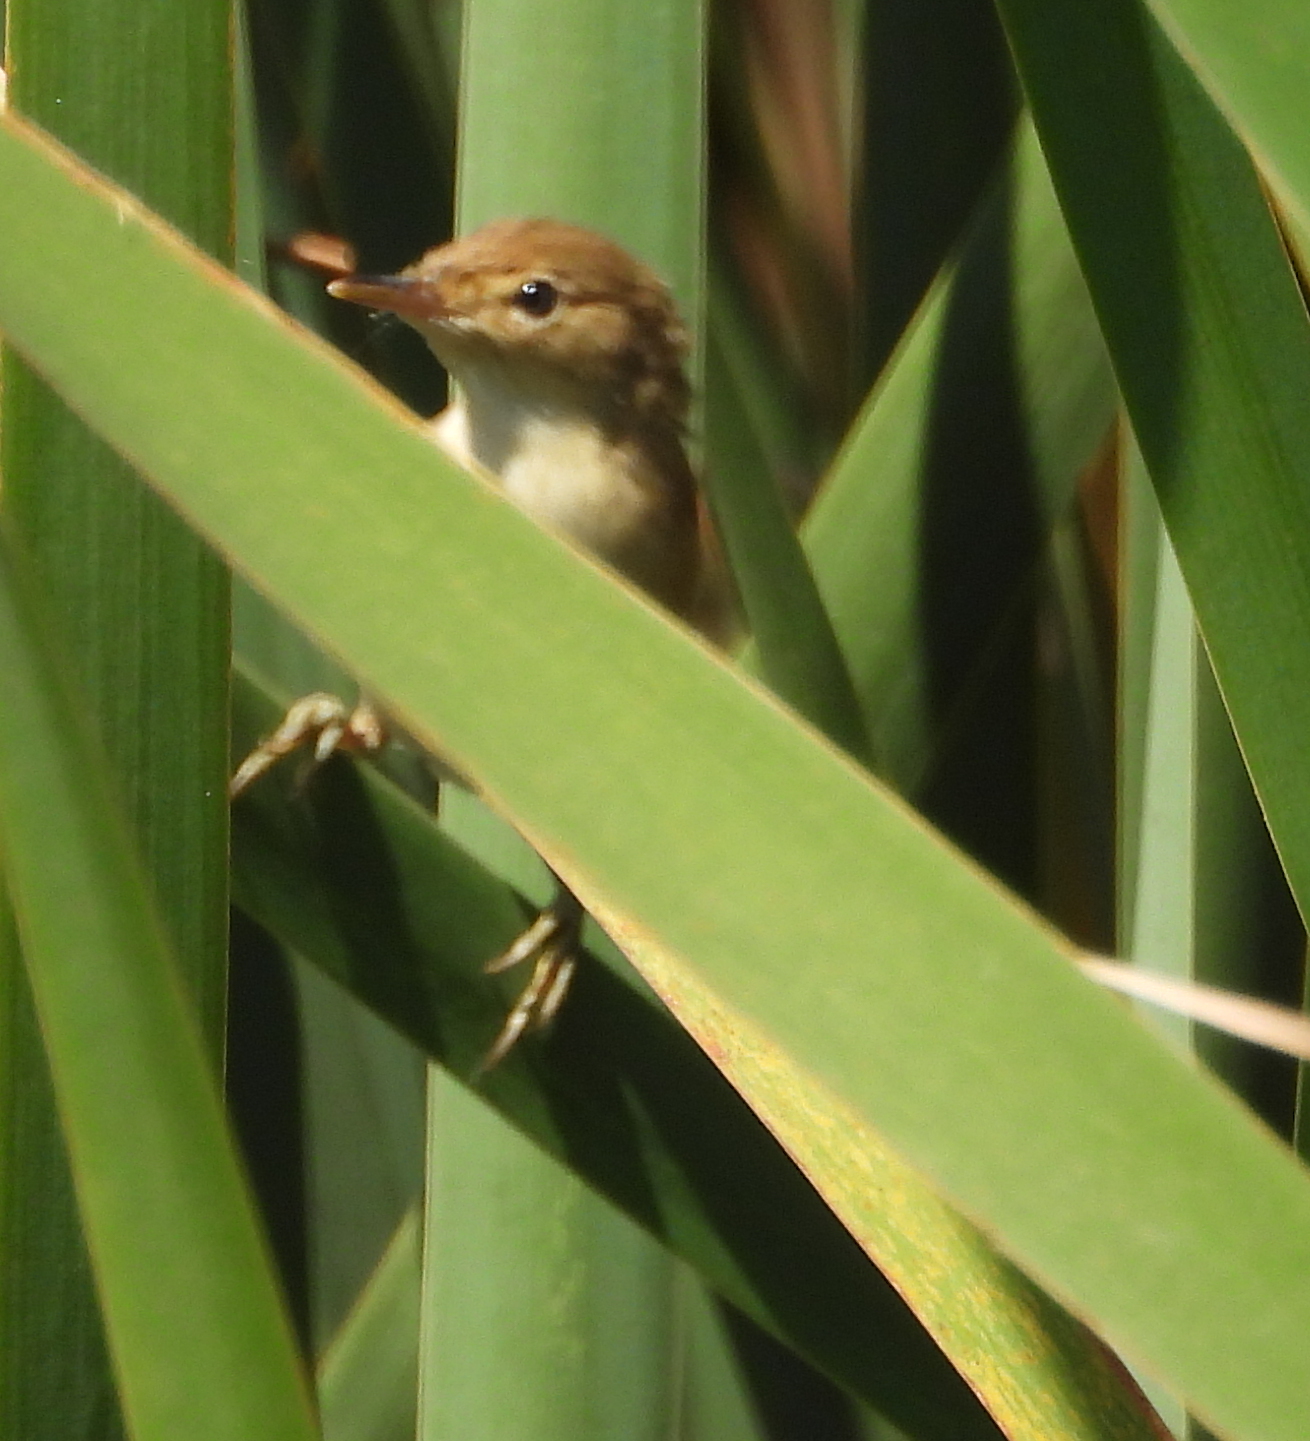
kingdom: Animalia
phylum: Chordata
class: Aves
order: Passeriformes
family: Acrocephalidae
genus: Acrocephalus
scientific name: Acrocephalus scirpaceus
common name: Eurasian reed warbler
